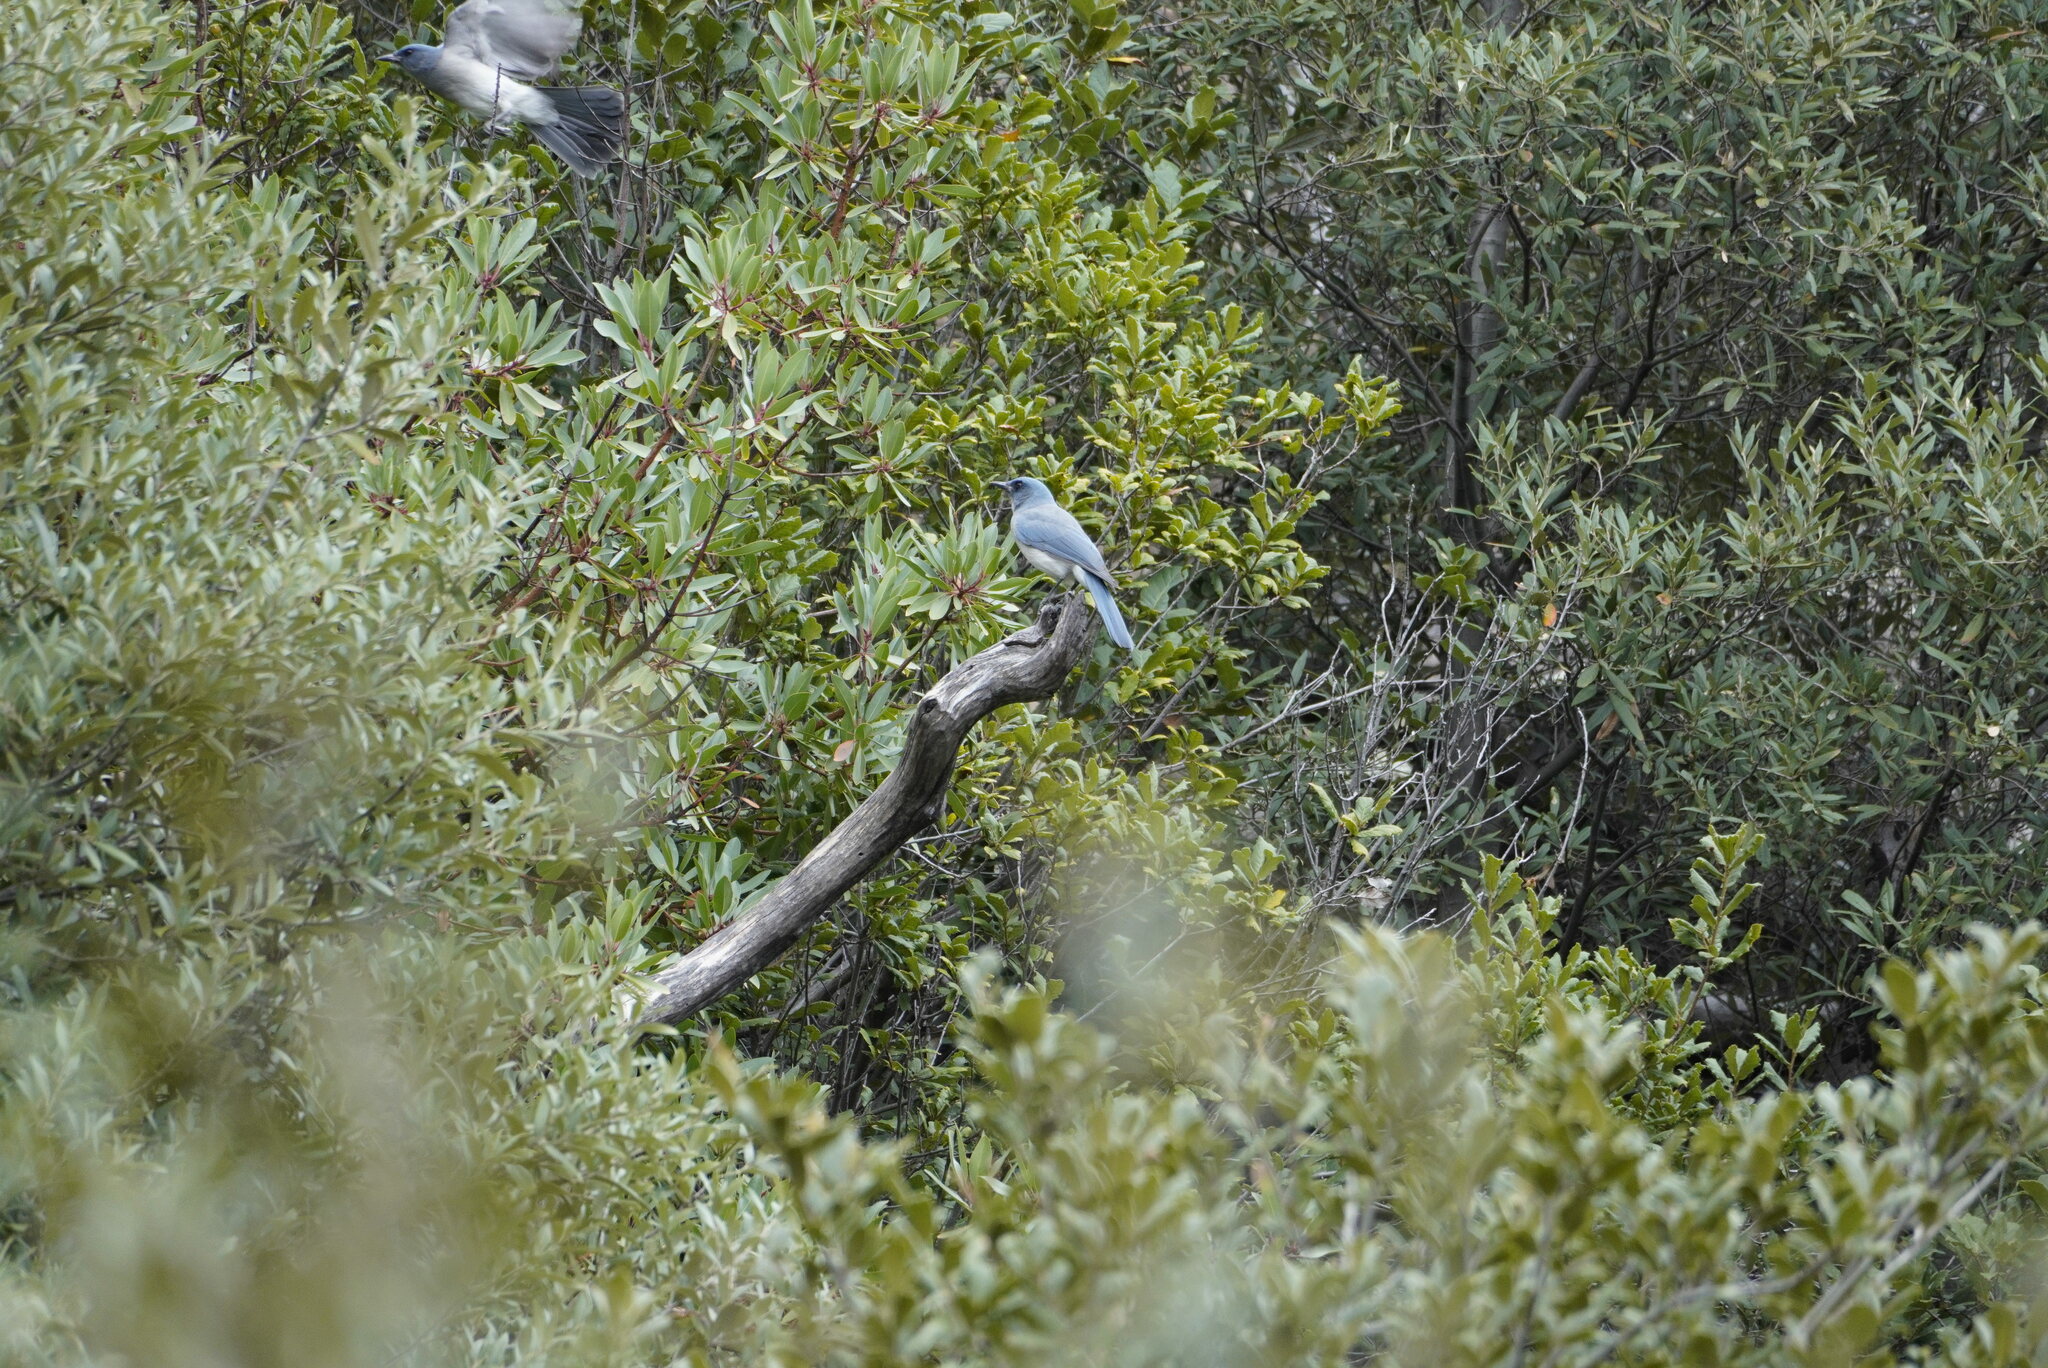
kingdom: Animalia
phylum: Chordata
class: Aves
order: Passeriformes
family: Corvidae
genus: Aphelocoma
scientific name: Aphelocoma wollweberi
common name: Mexican jay
